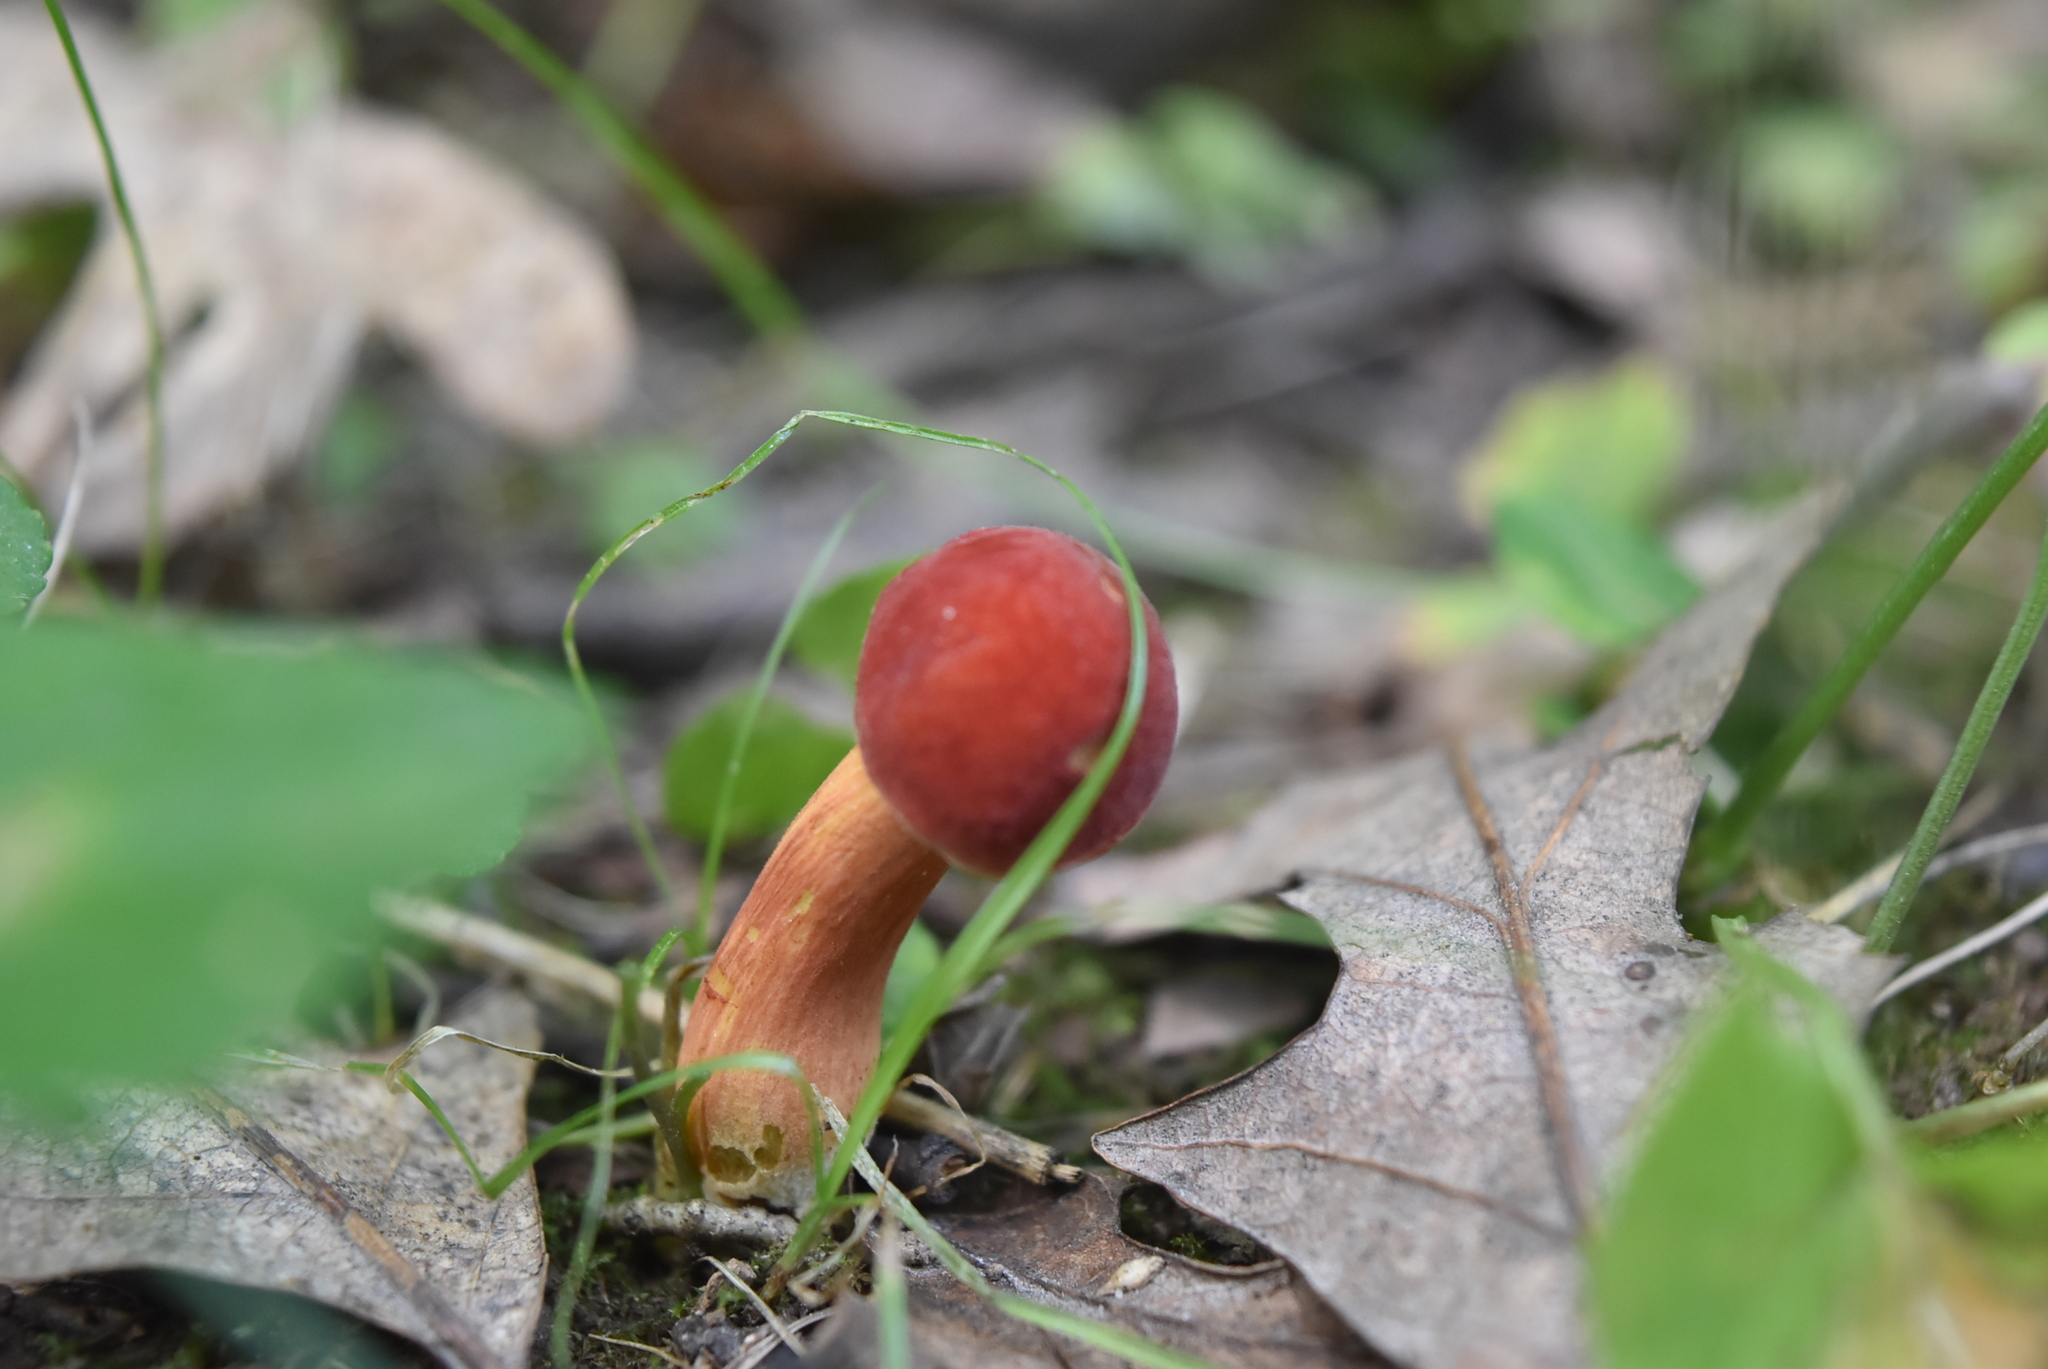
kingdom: Fungi
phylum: Basidiomycota
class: Agaricomycetes
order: Boletales
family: Boletaceae
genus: Hortiboletus
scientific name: Hortiboletus rubellus
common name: Ruby bolete
